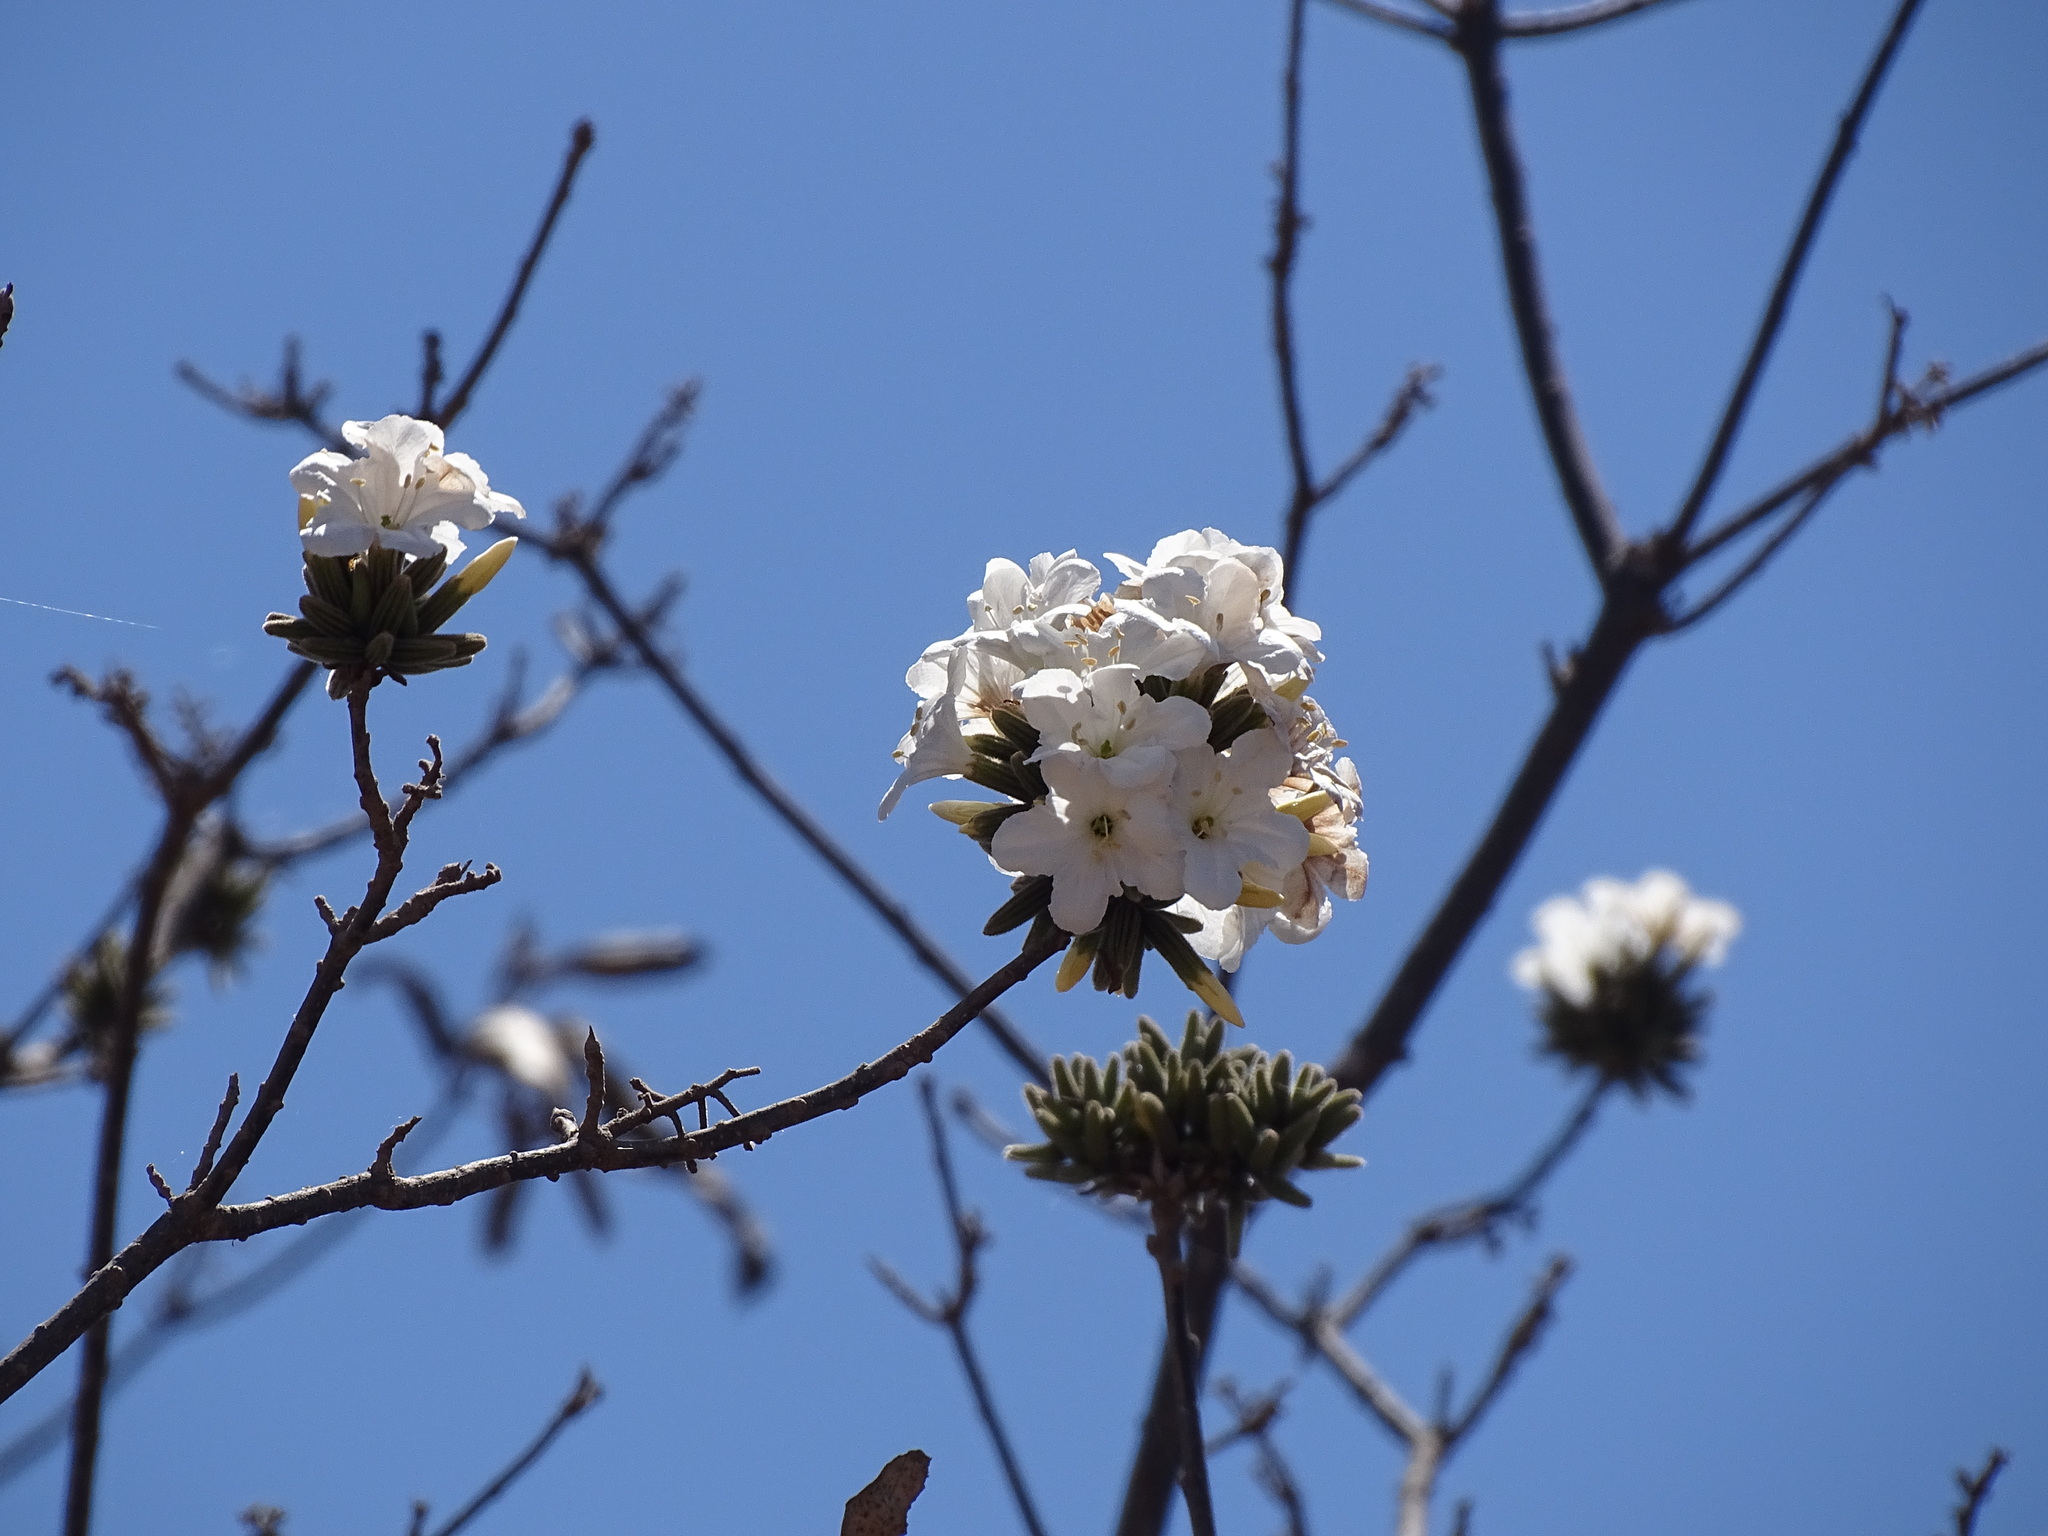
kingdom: Plantae
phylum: Tracheophyta
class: Magnoliopsida
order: Boraginales
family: Cordiaceae
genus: Cordia
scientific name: Cordia sonorae
